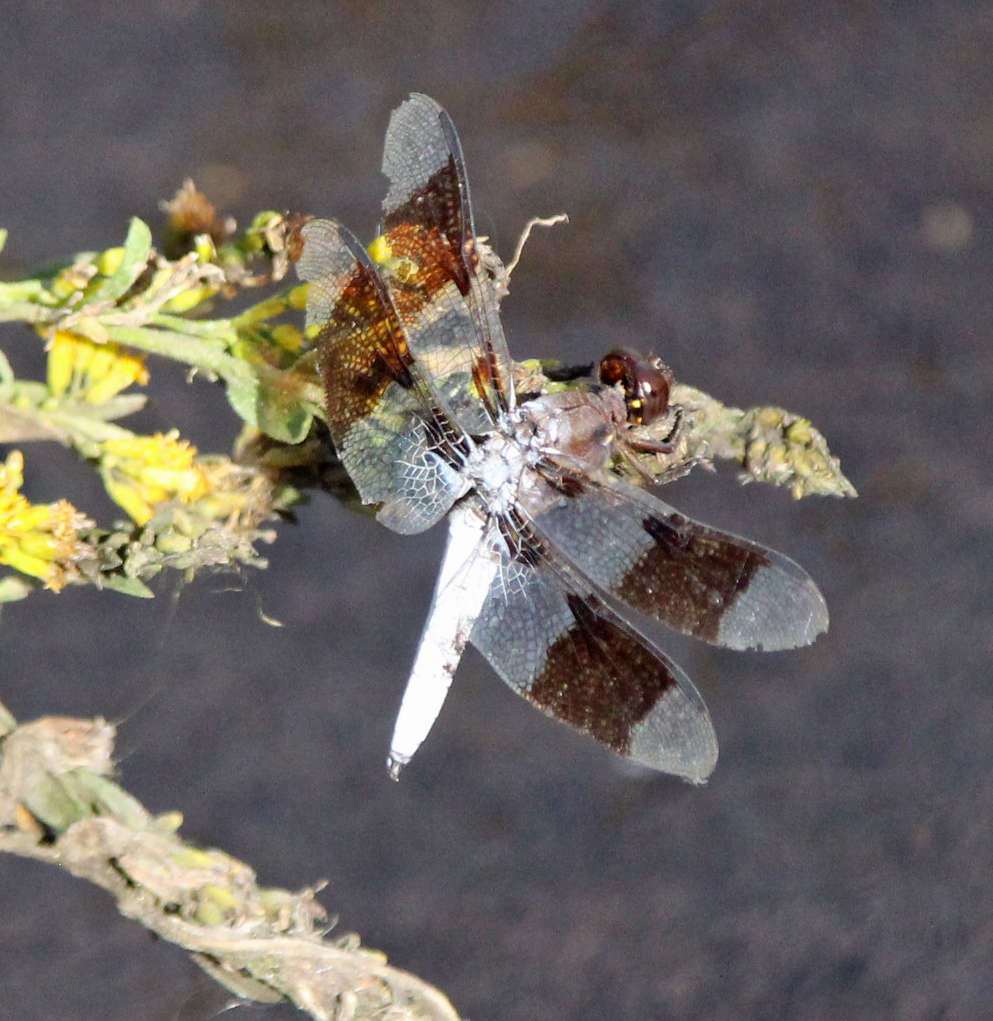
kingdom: Animalia
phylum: Arthropoda
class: Insecta
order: Odonata
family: Libellulidae
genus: Plathemis
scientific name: Plathemis lydia
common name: Common whitetail
